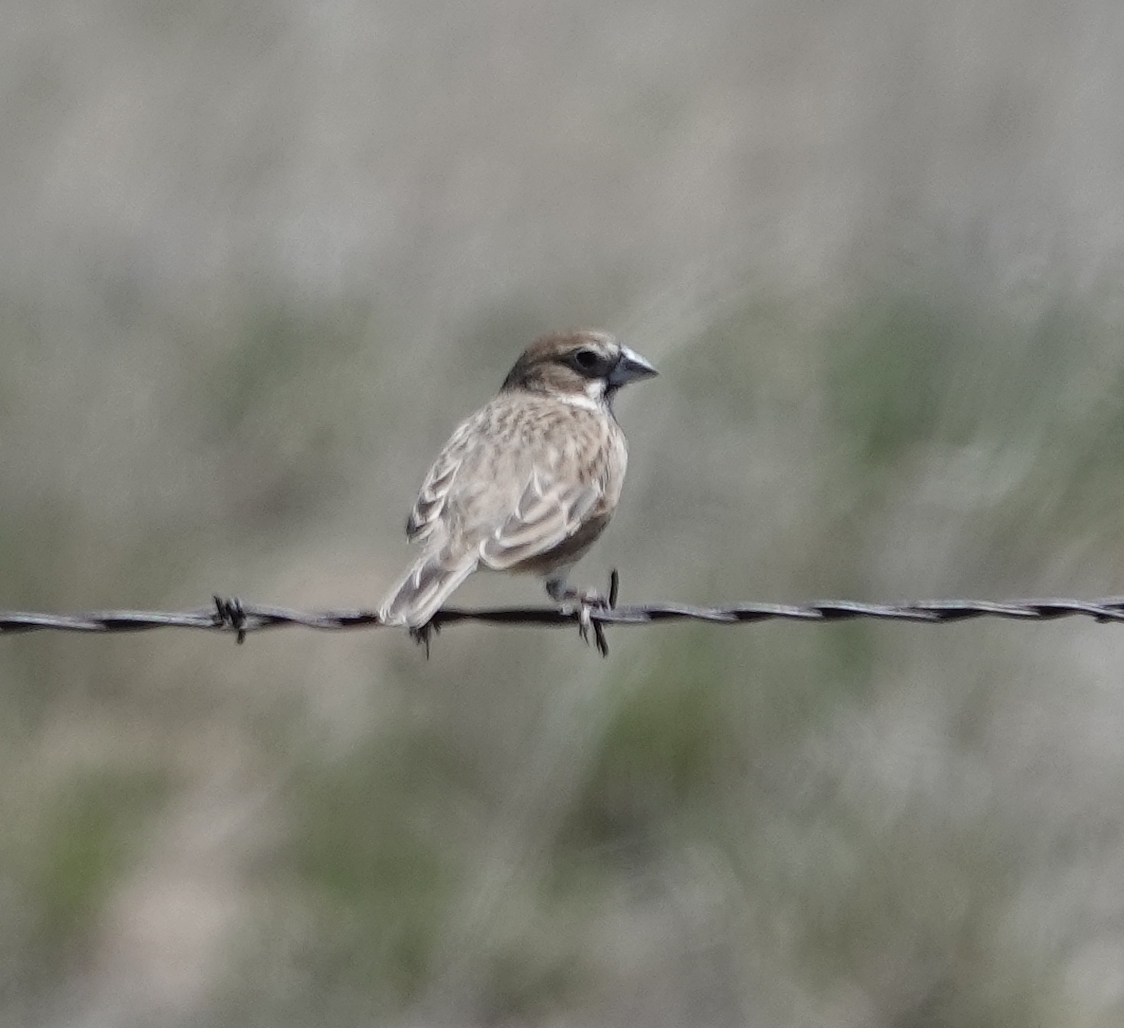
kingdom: Animalia
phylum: Chordata
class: Aves
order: Passeriformes
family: Passerellidae
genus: Calamospiza
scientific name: Calamospiza melanocorys
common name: Lark bunting
